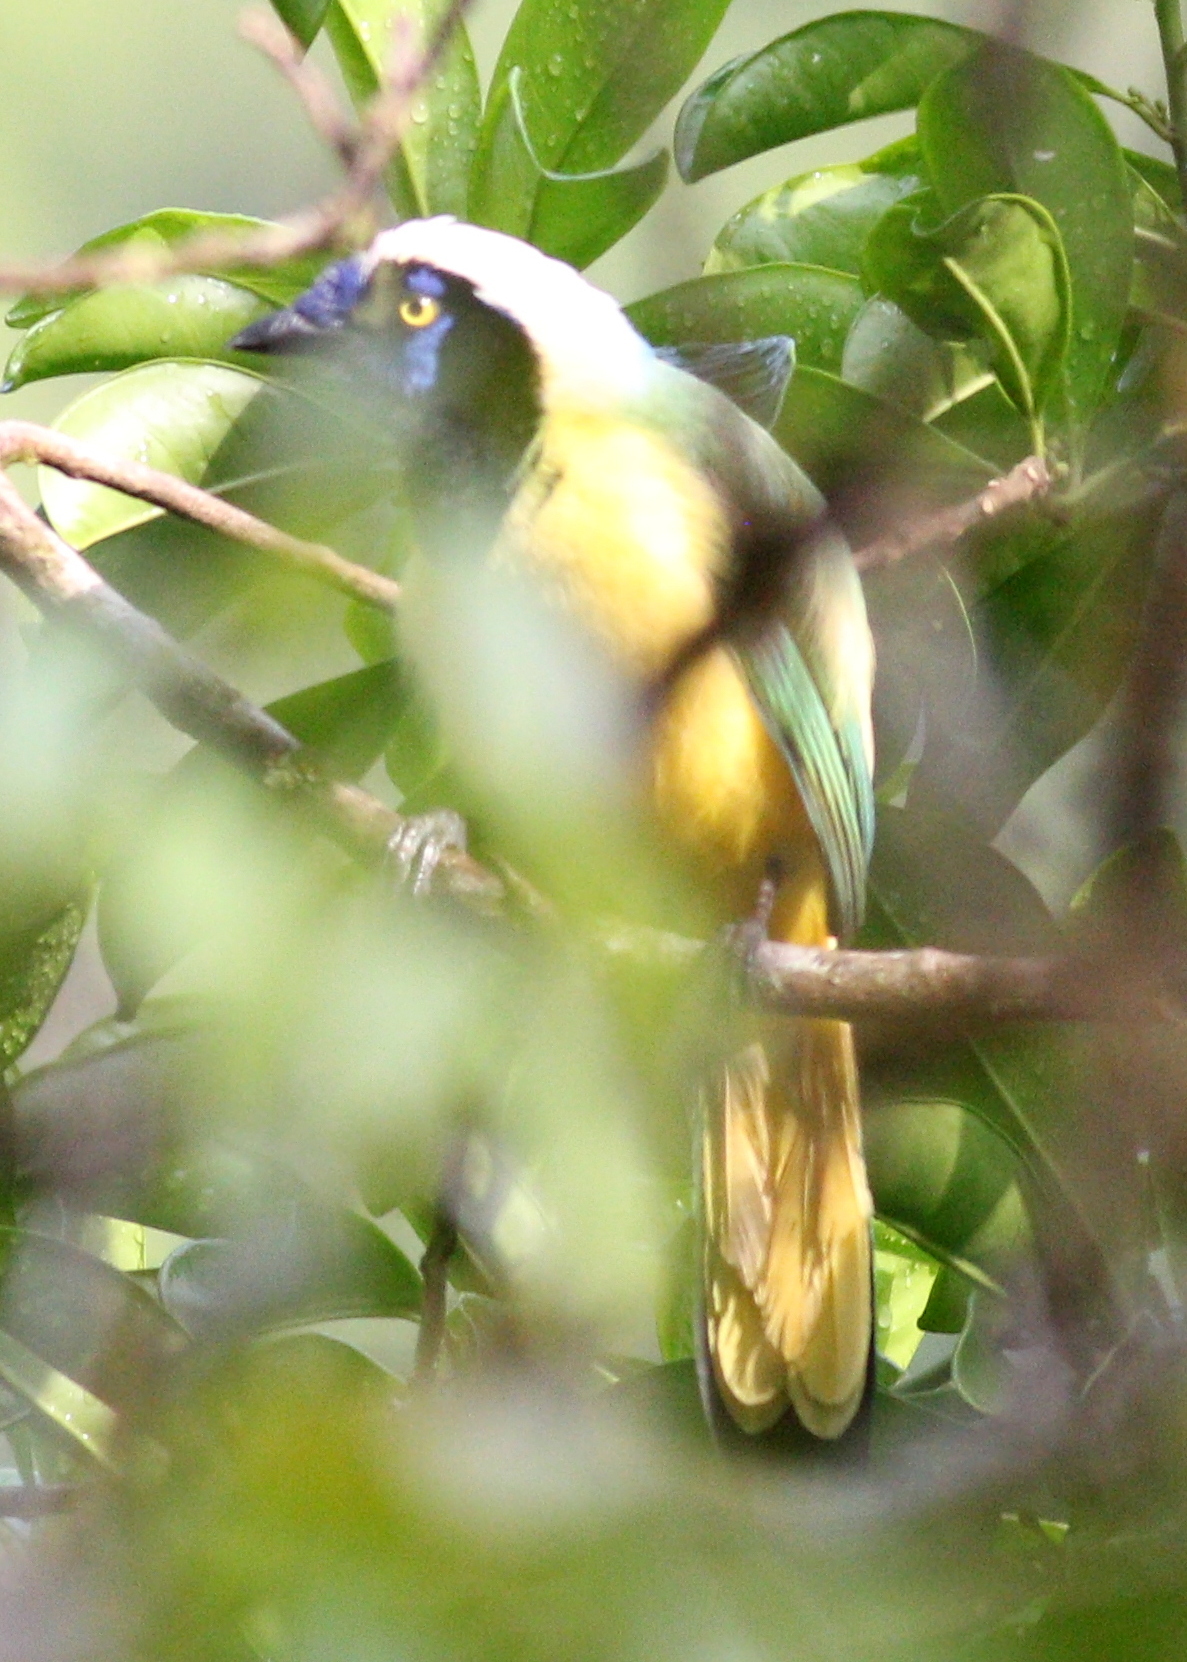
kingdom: Animalia
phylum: Chordata
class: Aves
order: Passeriformes
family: Corvidae
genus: Cyanocorax
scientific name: Cyanocorax yncas
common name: Green jay
